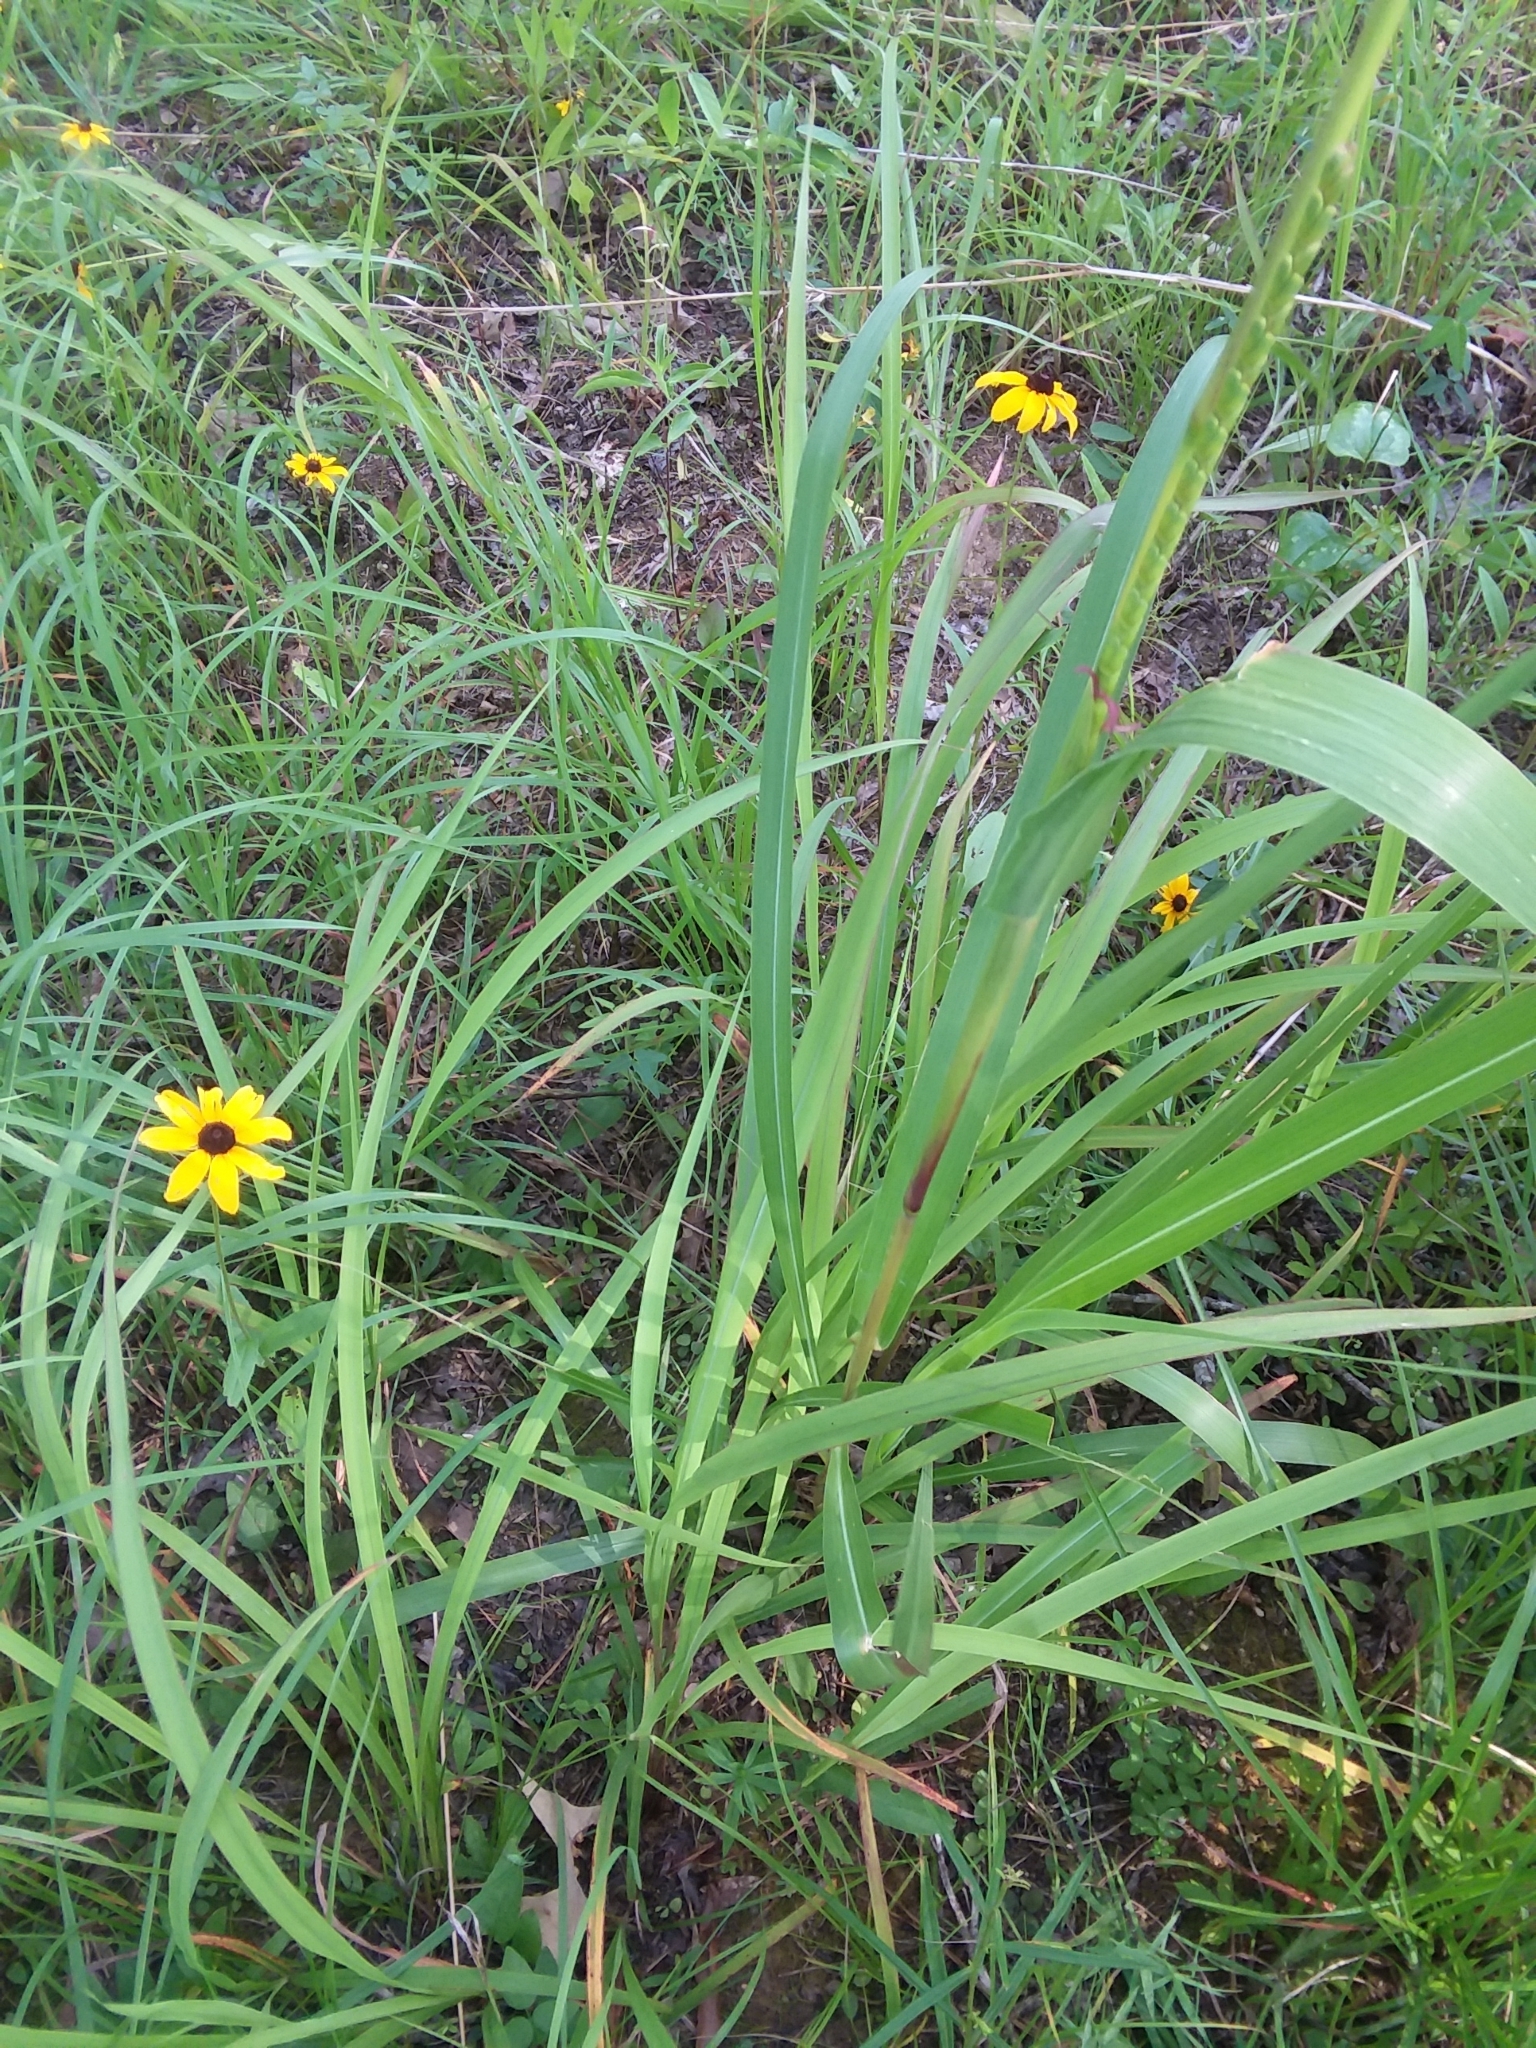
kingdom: Plantae
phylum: Tracheophyta
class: Liliopsida
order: Poales
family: Poaceae
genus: Tripsacum
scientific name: Tripsacum dactyloides
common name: Buffalo-grass
